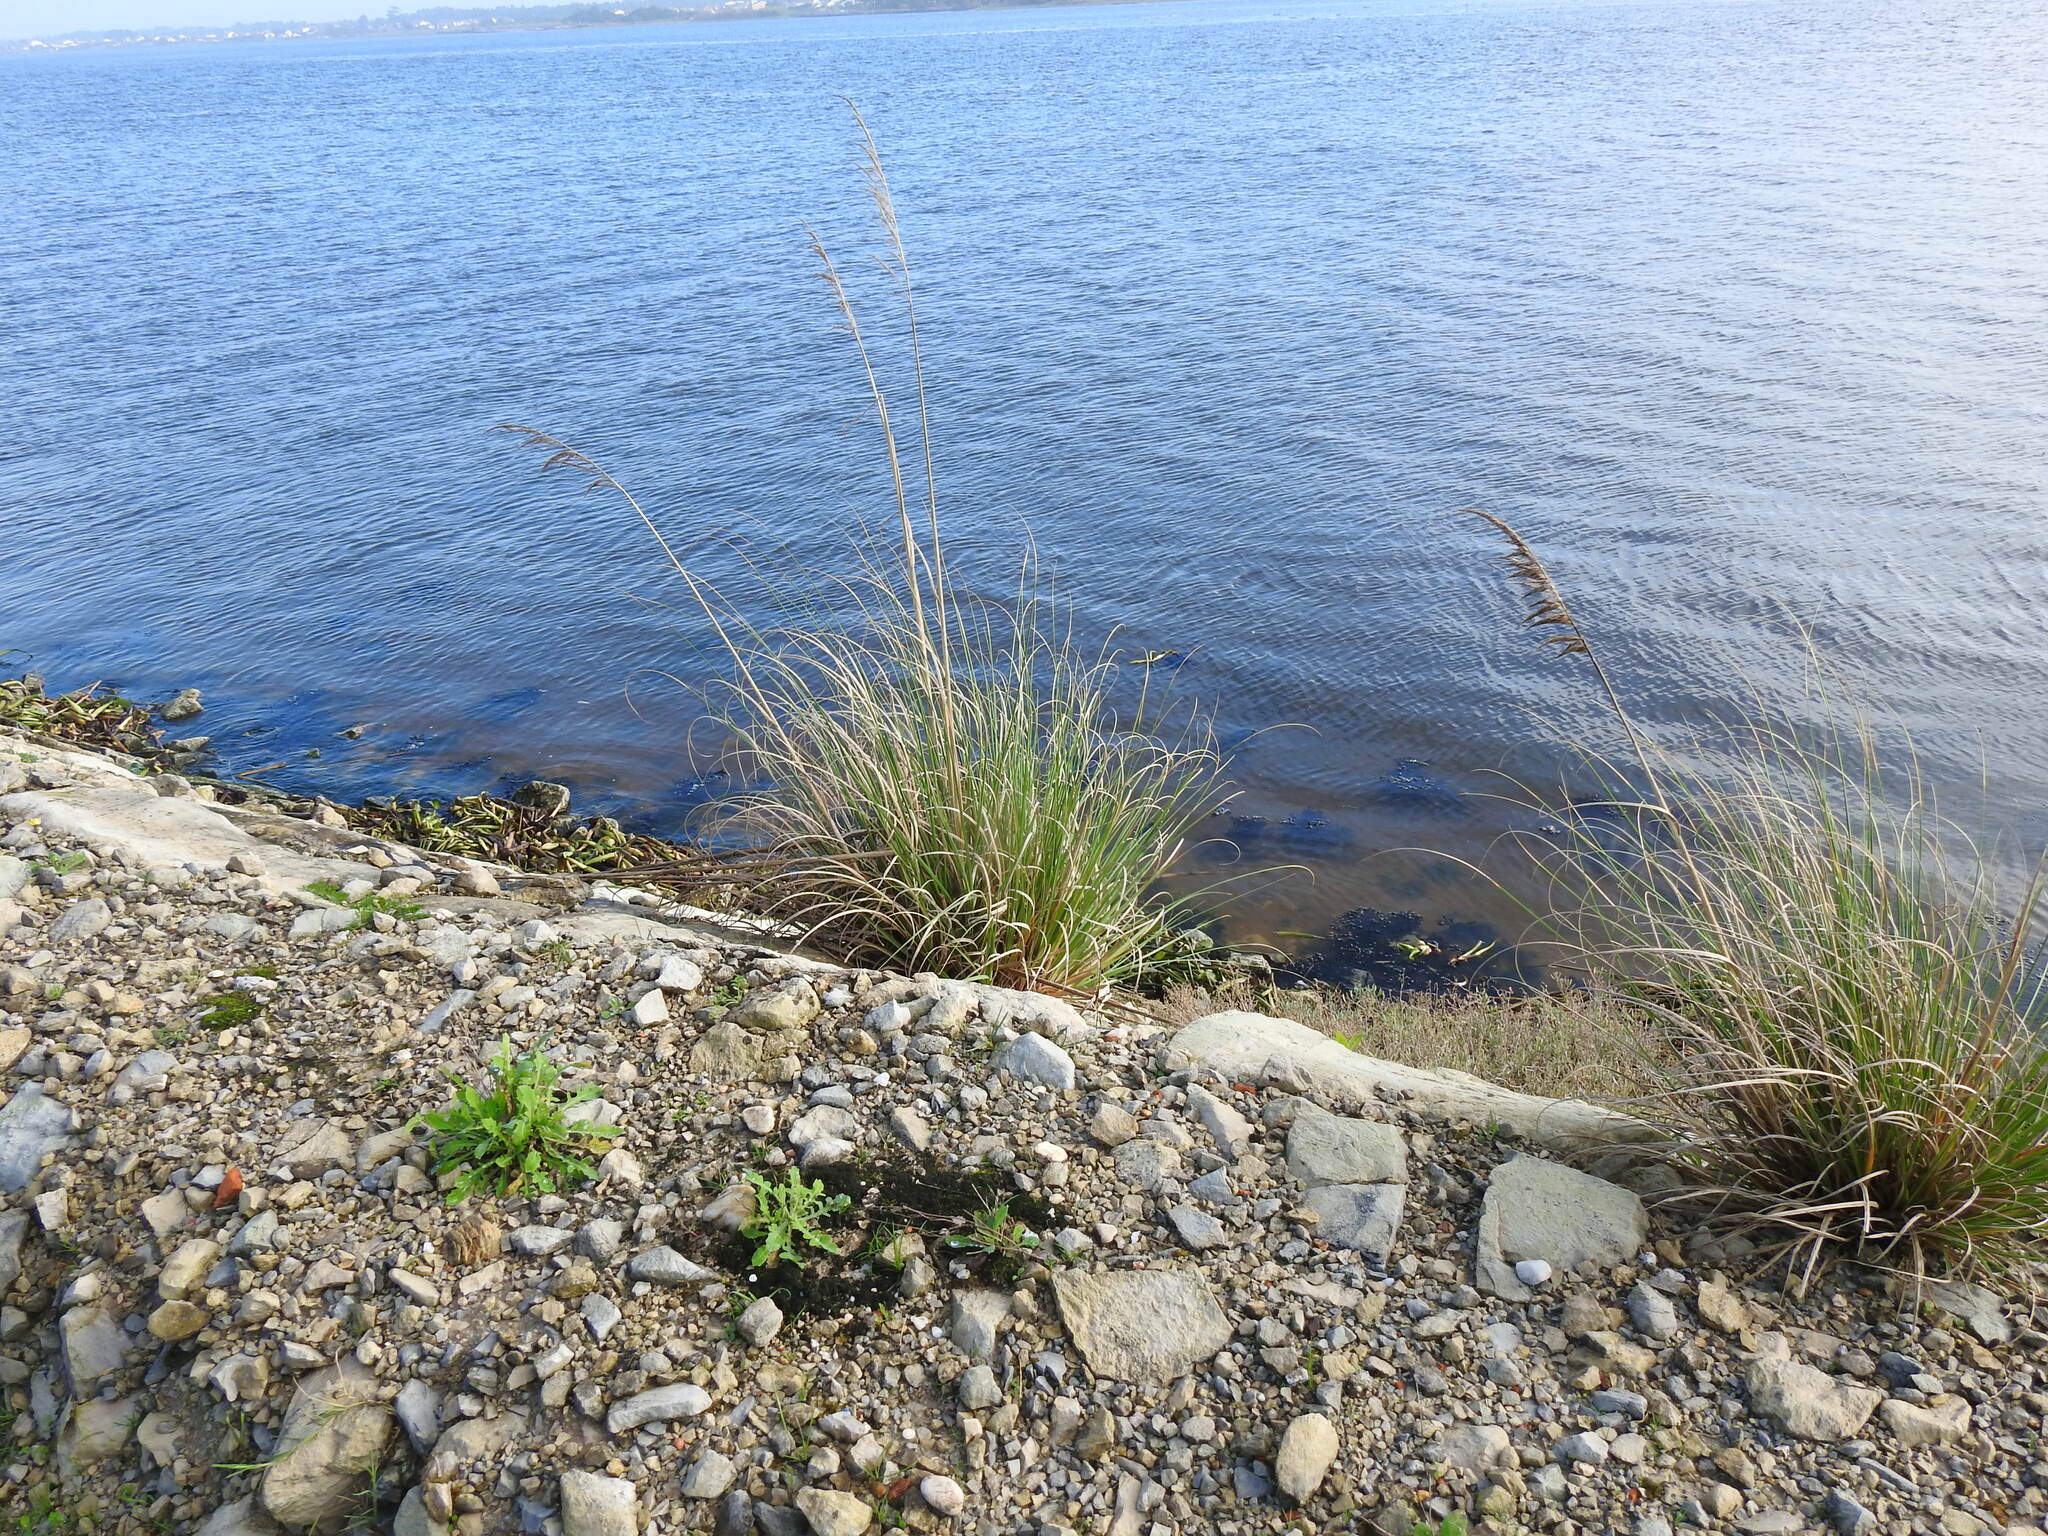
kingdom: Plantae
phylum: Tracheophyta
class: Liliopsida
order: Poales
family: Poaceae
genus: Cortaderia
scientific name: Cortaderia selloana
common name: Uruguayan pampas grass
